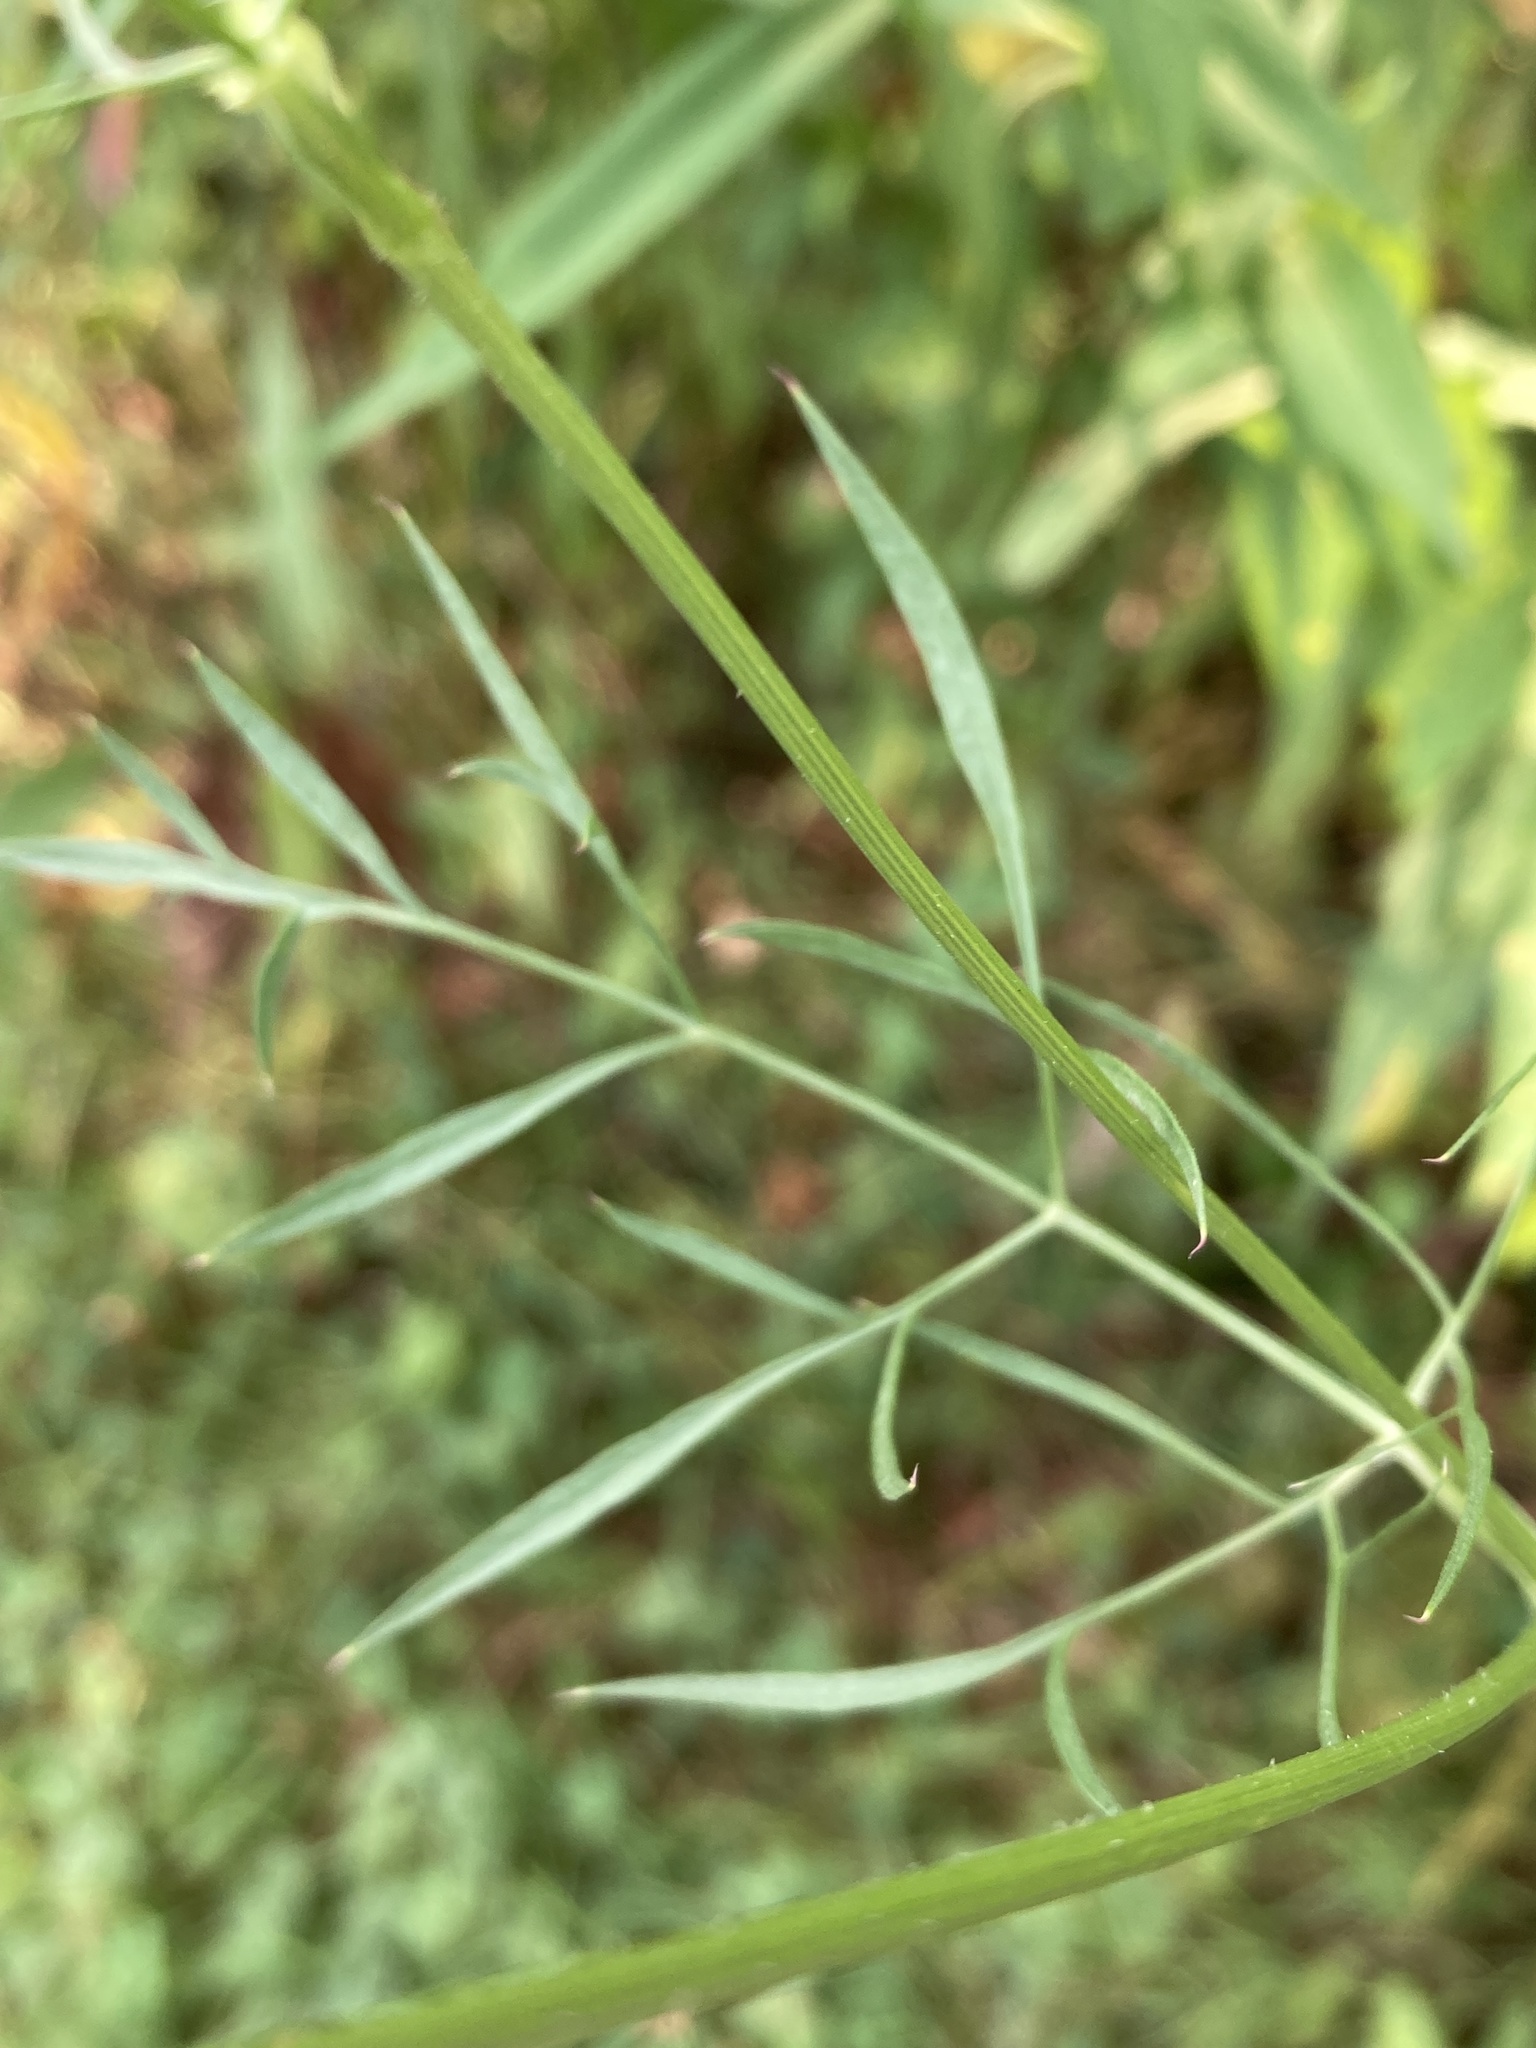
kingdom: Plantae
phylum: Tracheophyta
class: Magnoliopsida
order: Apiales
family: Apiaceae
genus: Daucus
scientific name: Daucus carota
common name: Wild carrot
